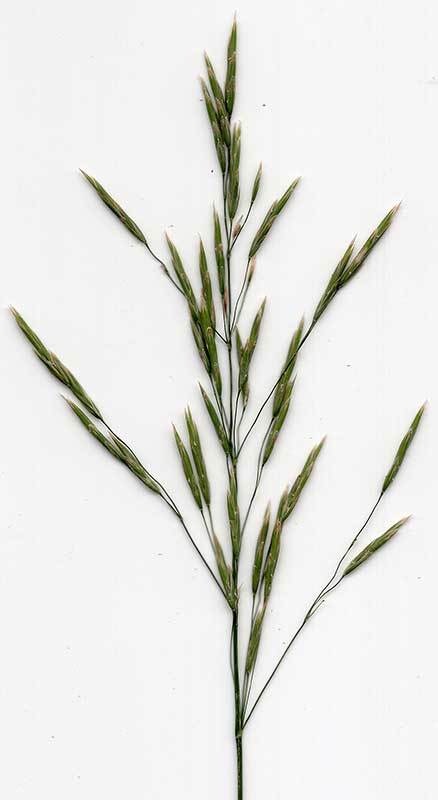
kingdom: Plantae
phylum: Tracheophyta
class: Liliopsida
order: Poales
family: Poaceae
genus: Bromus
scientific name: Bromus inermis
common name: Smooth brome
